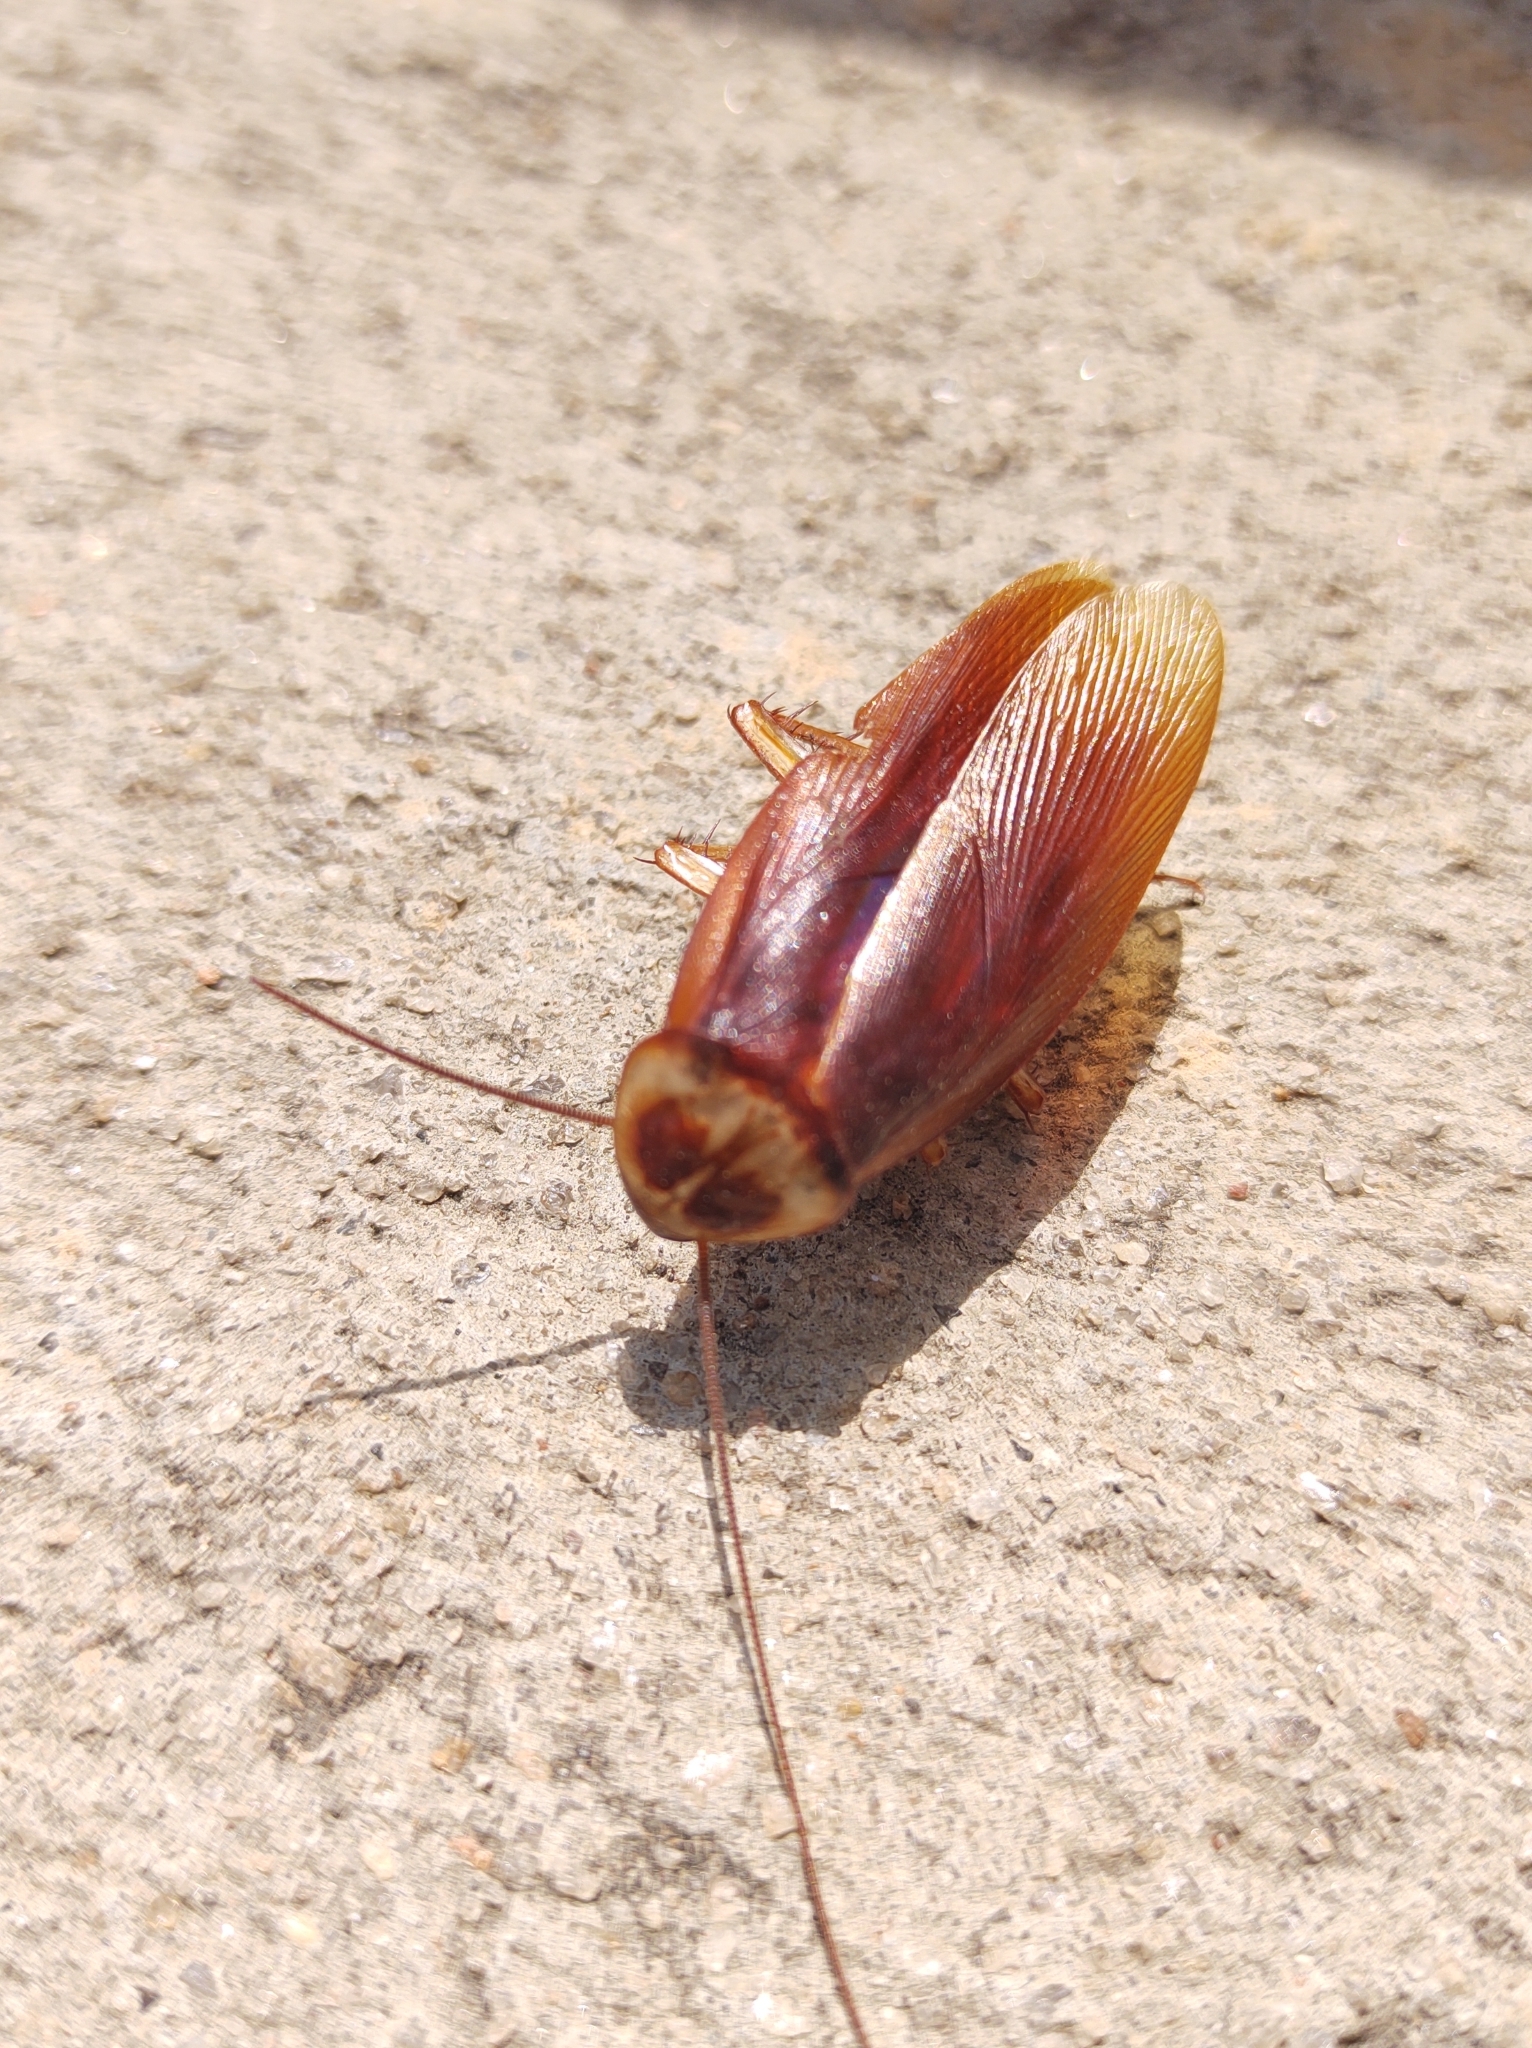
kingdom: Animalia
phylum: Arthropoda
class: Insecta
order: Blattodea
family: Blattidae
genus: Periplaneta
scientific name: Periplaneta americana
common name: American cockroach
